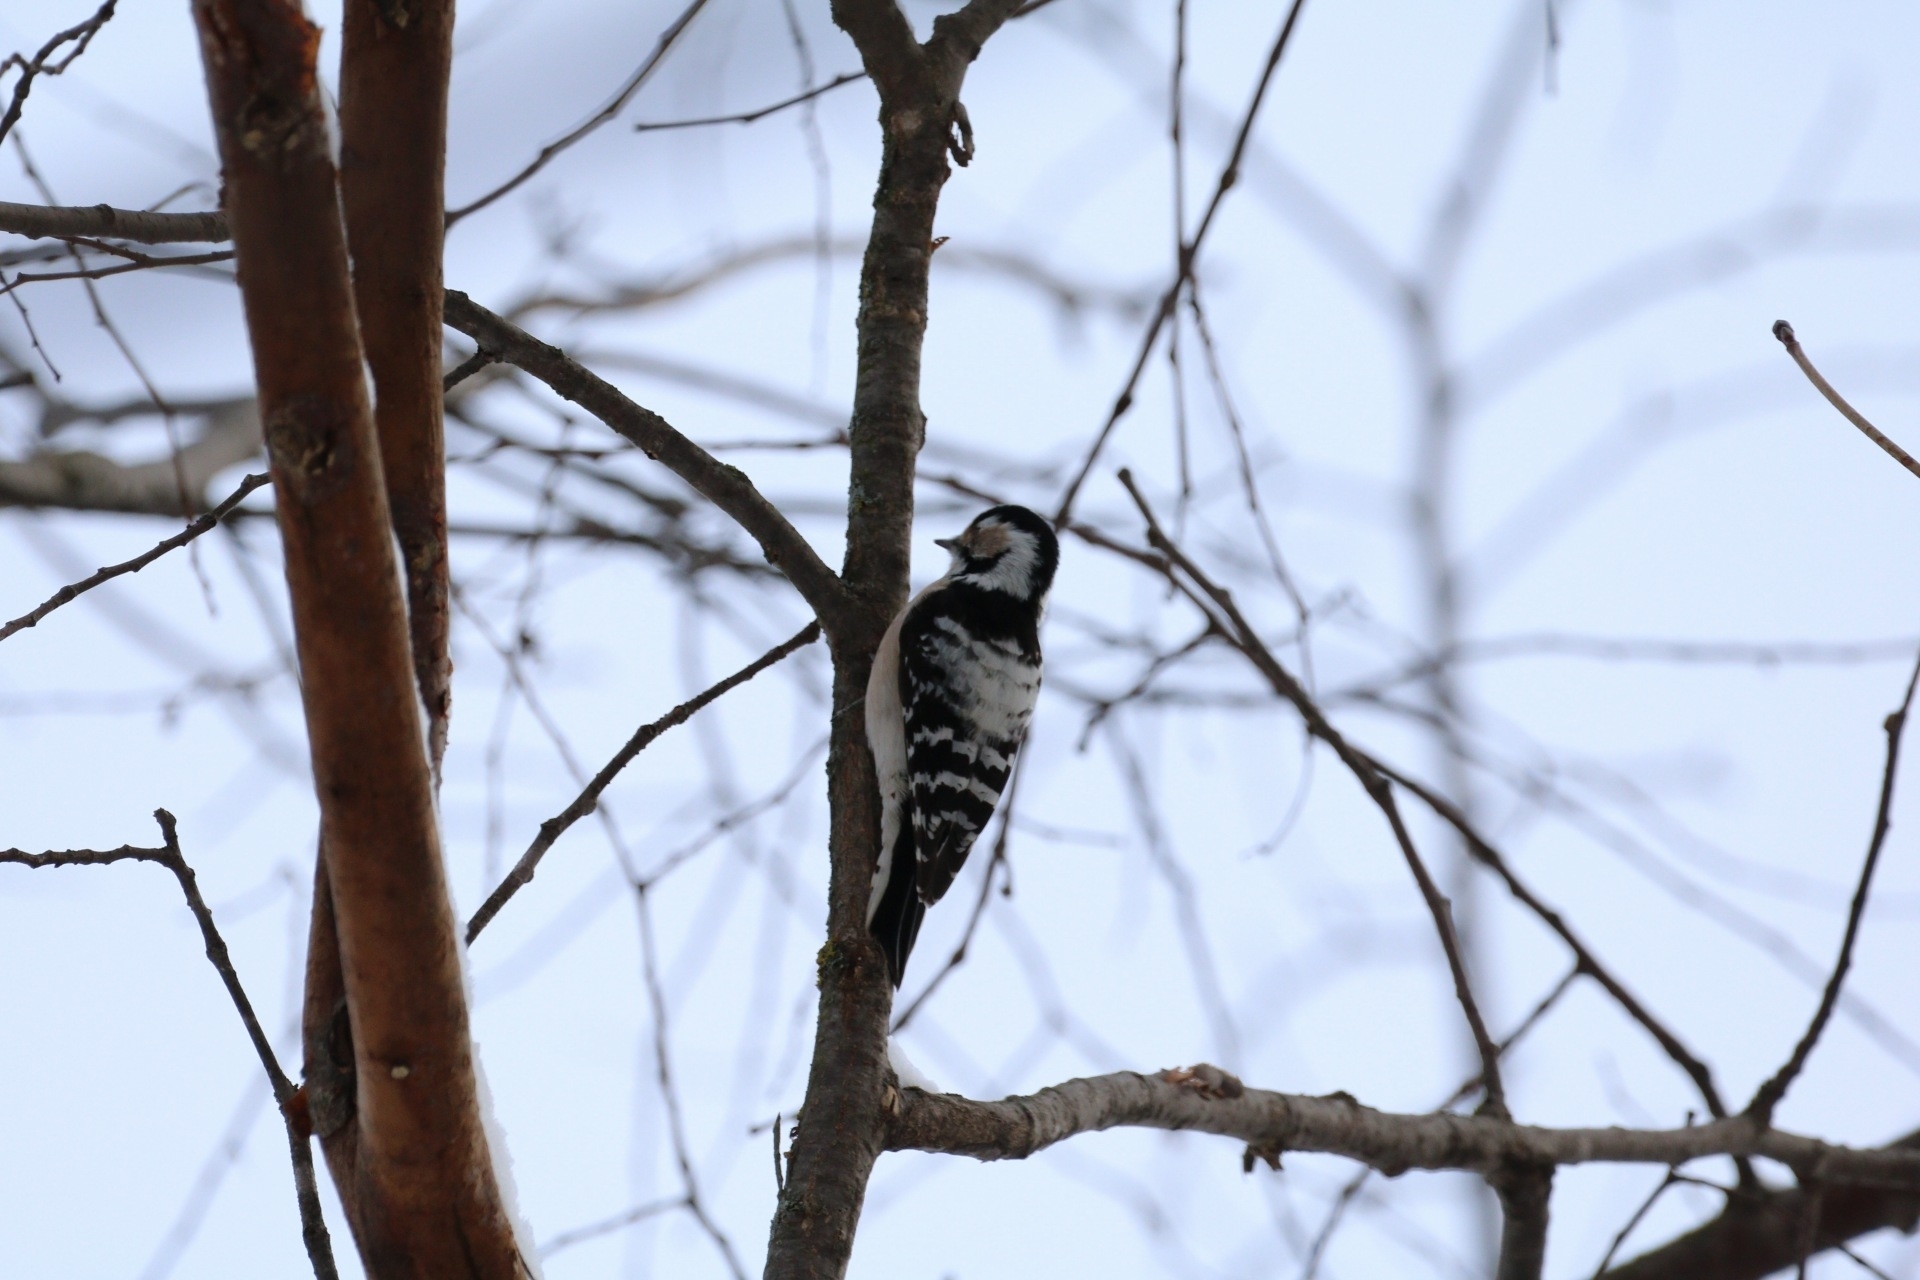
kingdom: Animalia
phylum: Chordata
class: Aves
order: Piciformes
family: Picidae
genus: Dryobates
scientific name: Dryobates minor
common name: Lesser spotted woodpecker
